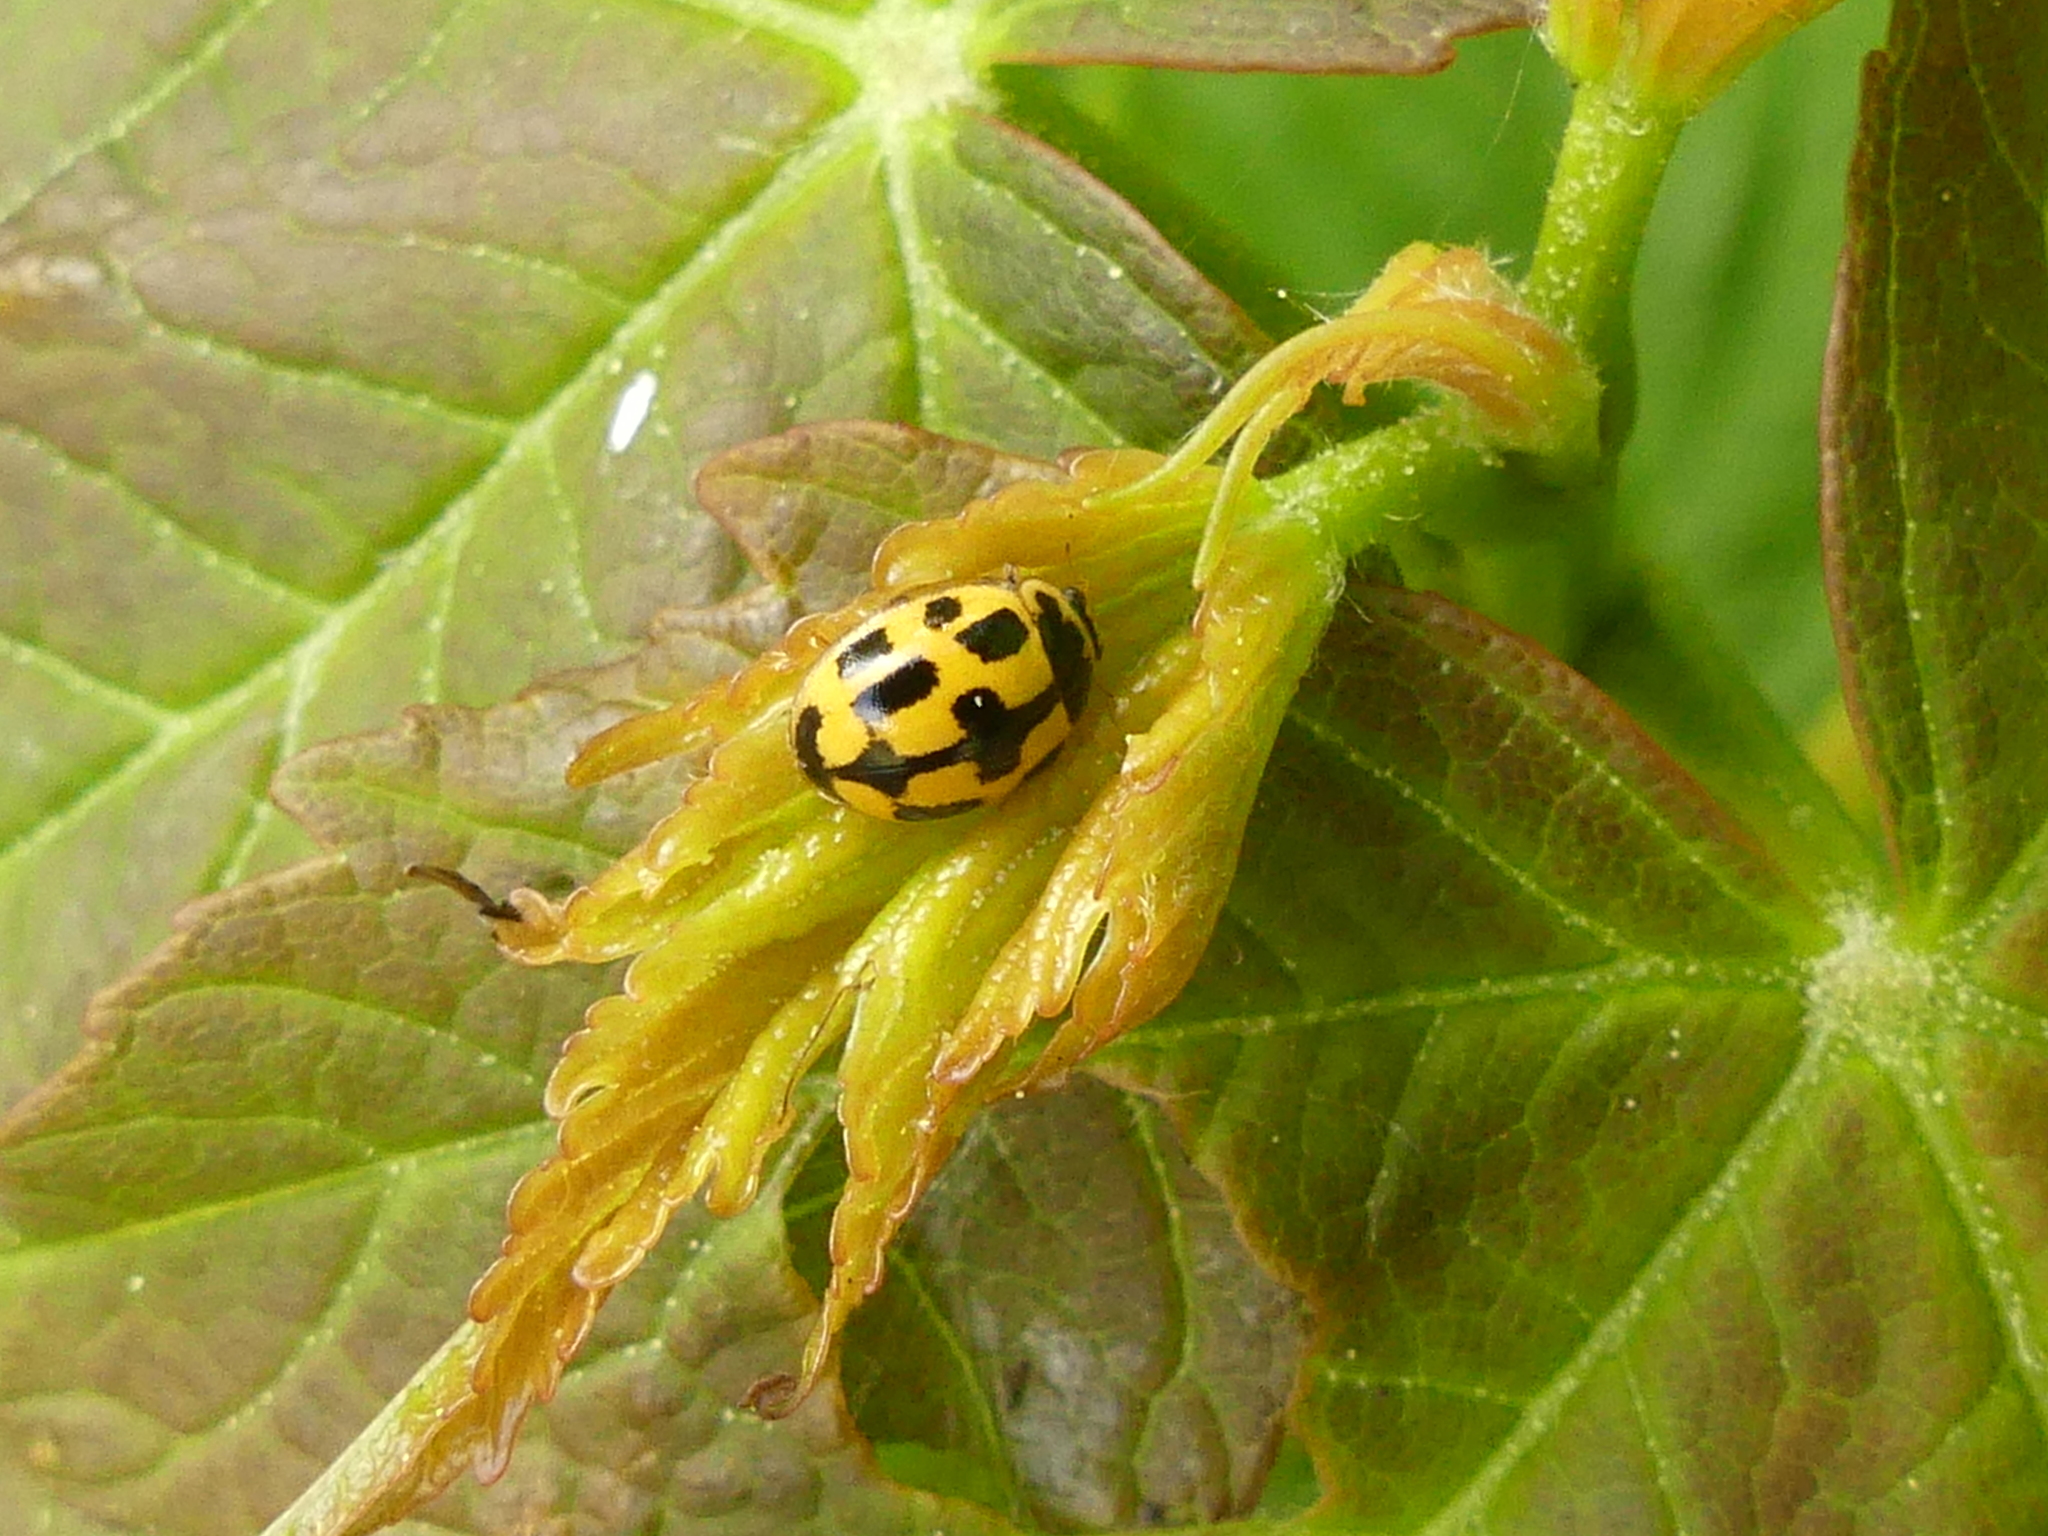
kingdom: Animalia
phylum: Arthropoda
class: Insecta
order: Coleoptera
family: Coccinellidae
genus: Propylaea
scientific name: Propylaea quatuordecimpunctata
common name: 14-spotted ladybird beetle
